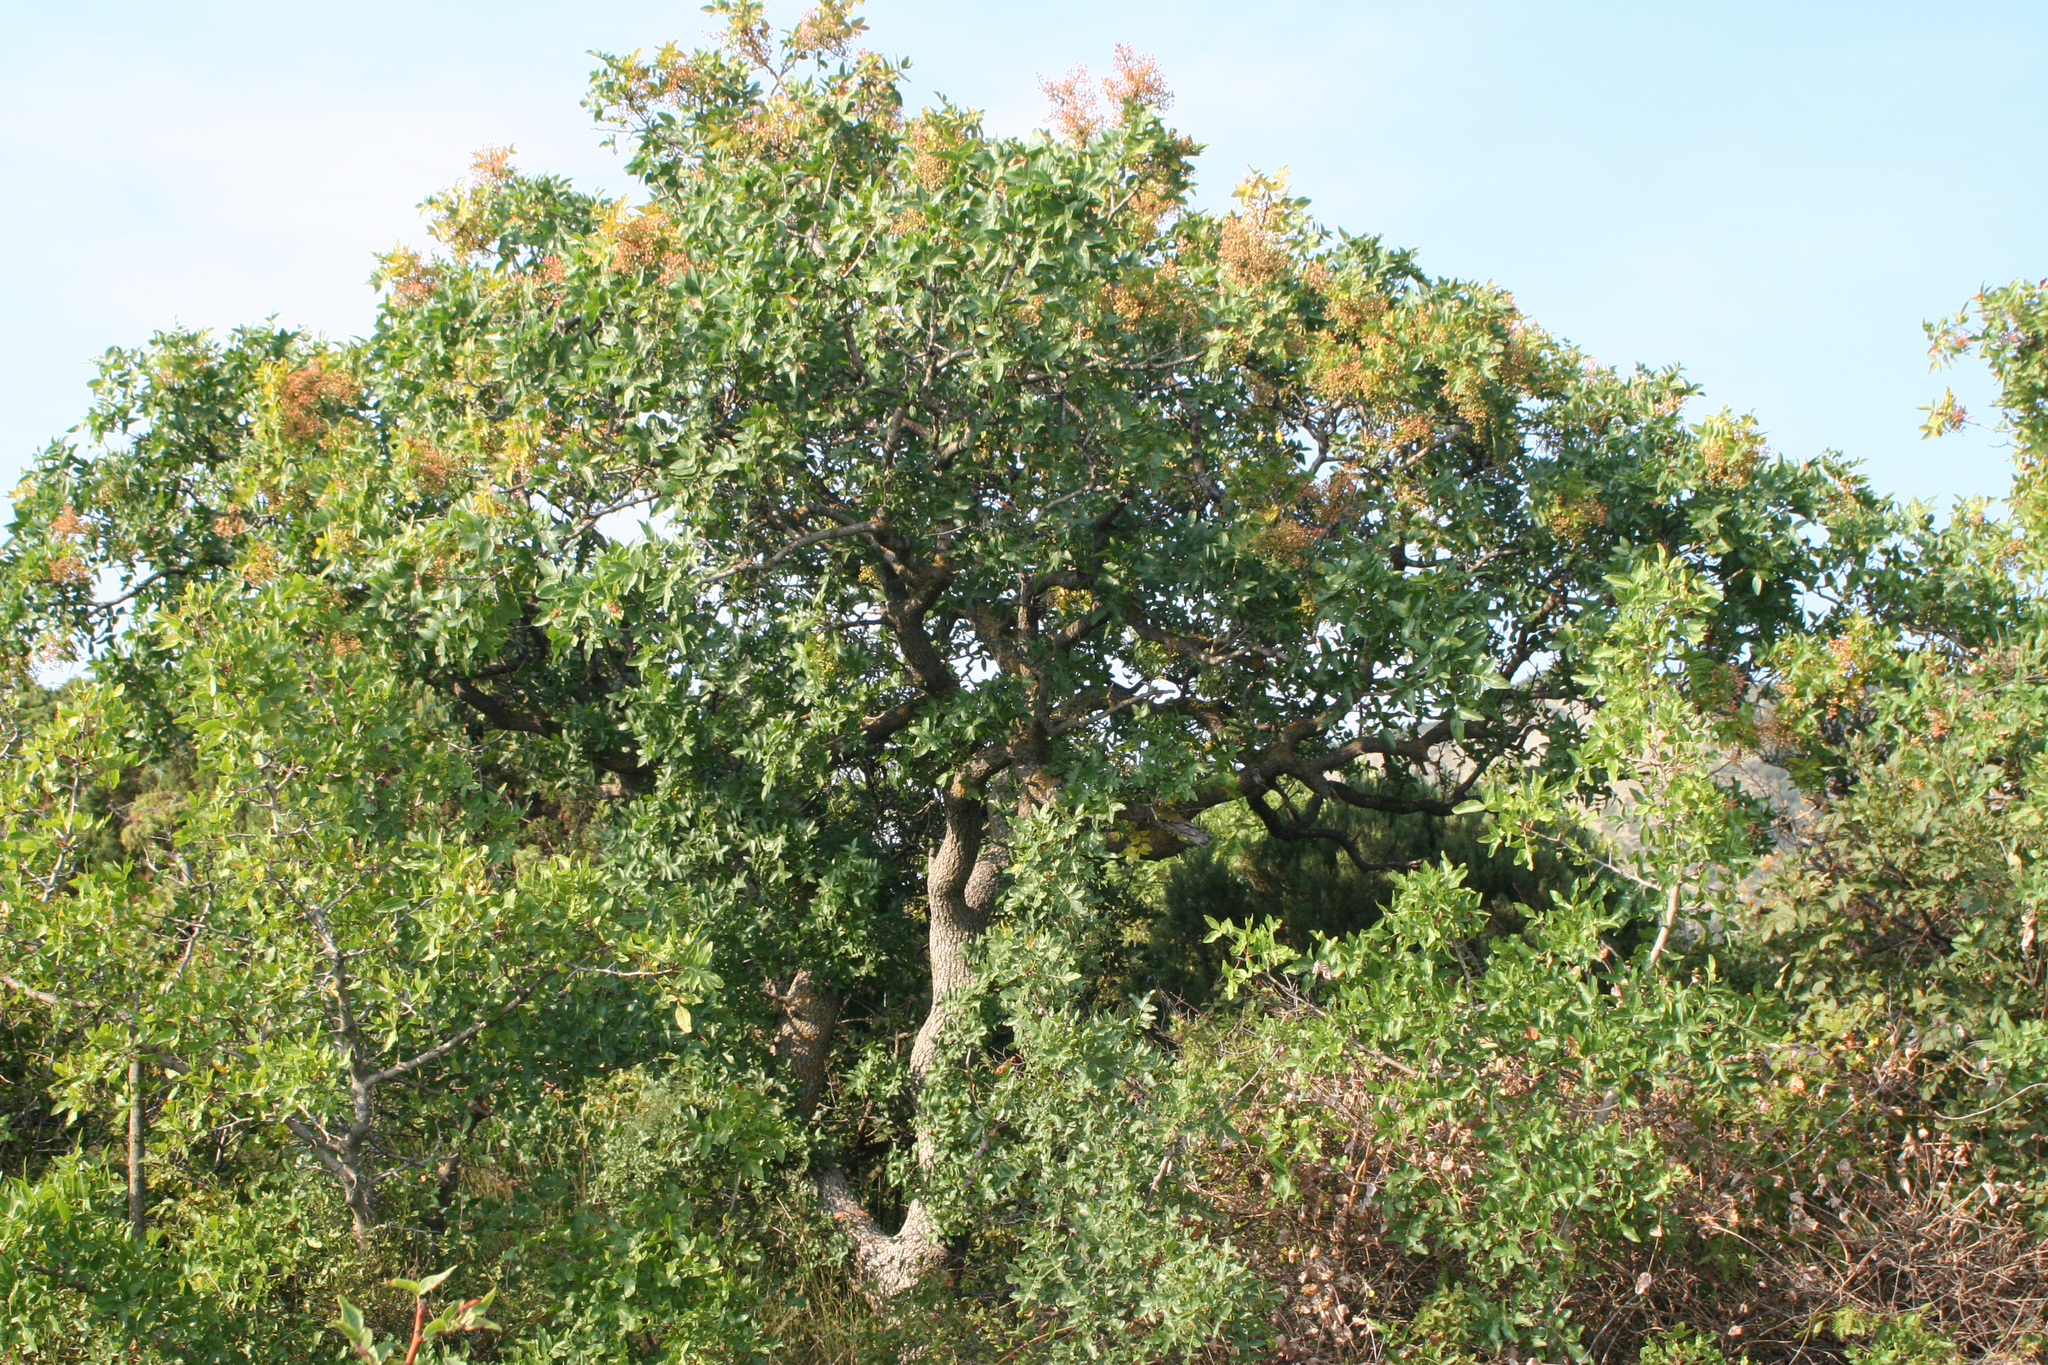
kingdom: Plantae
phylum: Tracheophyta
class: Magnoliopsida
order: Sapindales
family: Anacardiaceae
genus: Pistacia
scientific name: Pistacia atlantica
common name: Mt. atlas mastic tree
